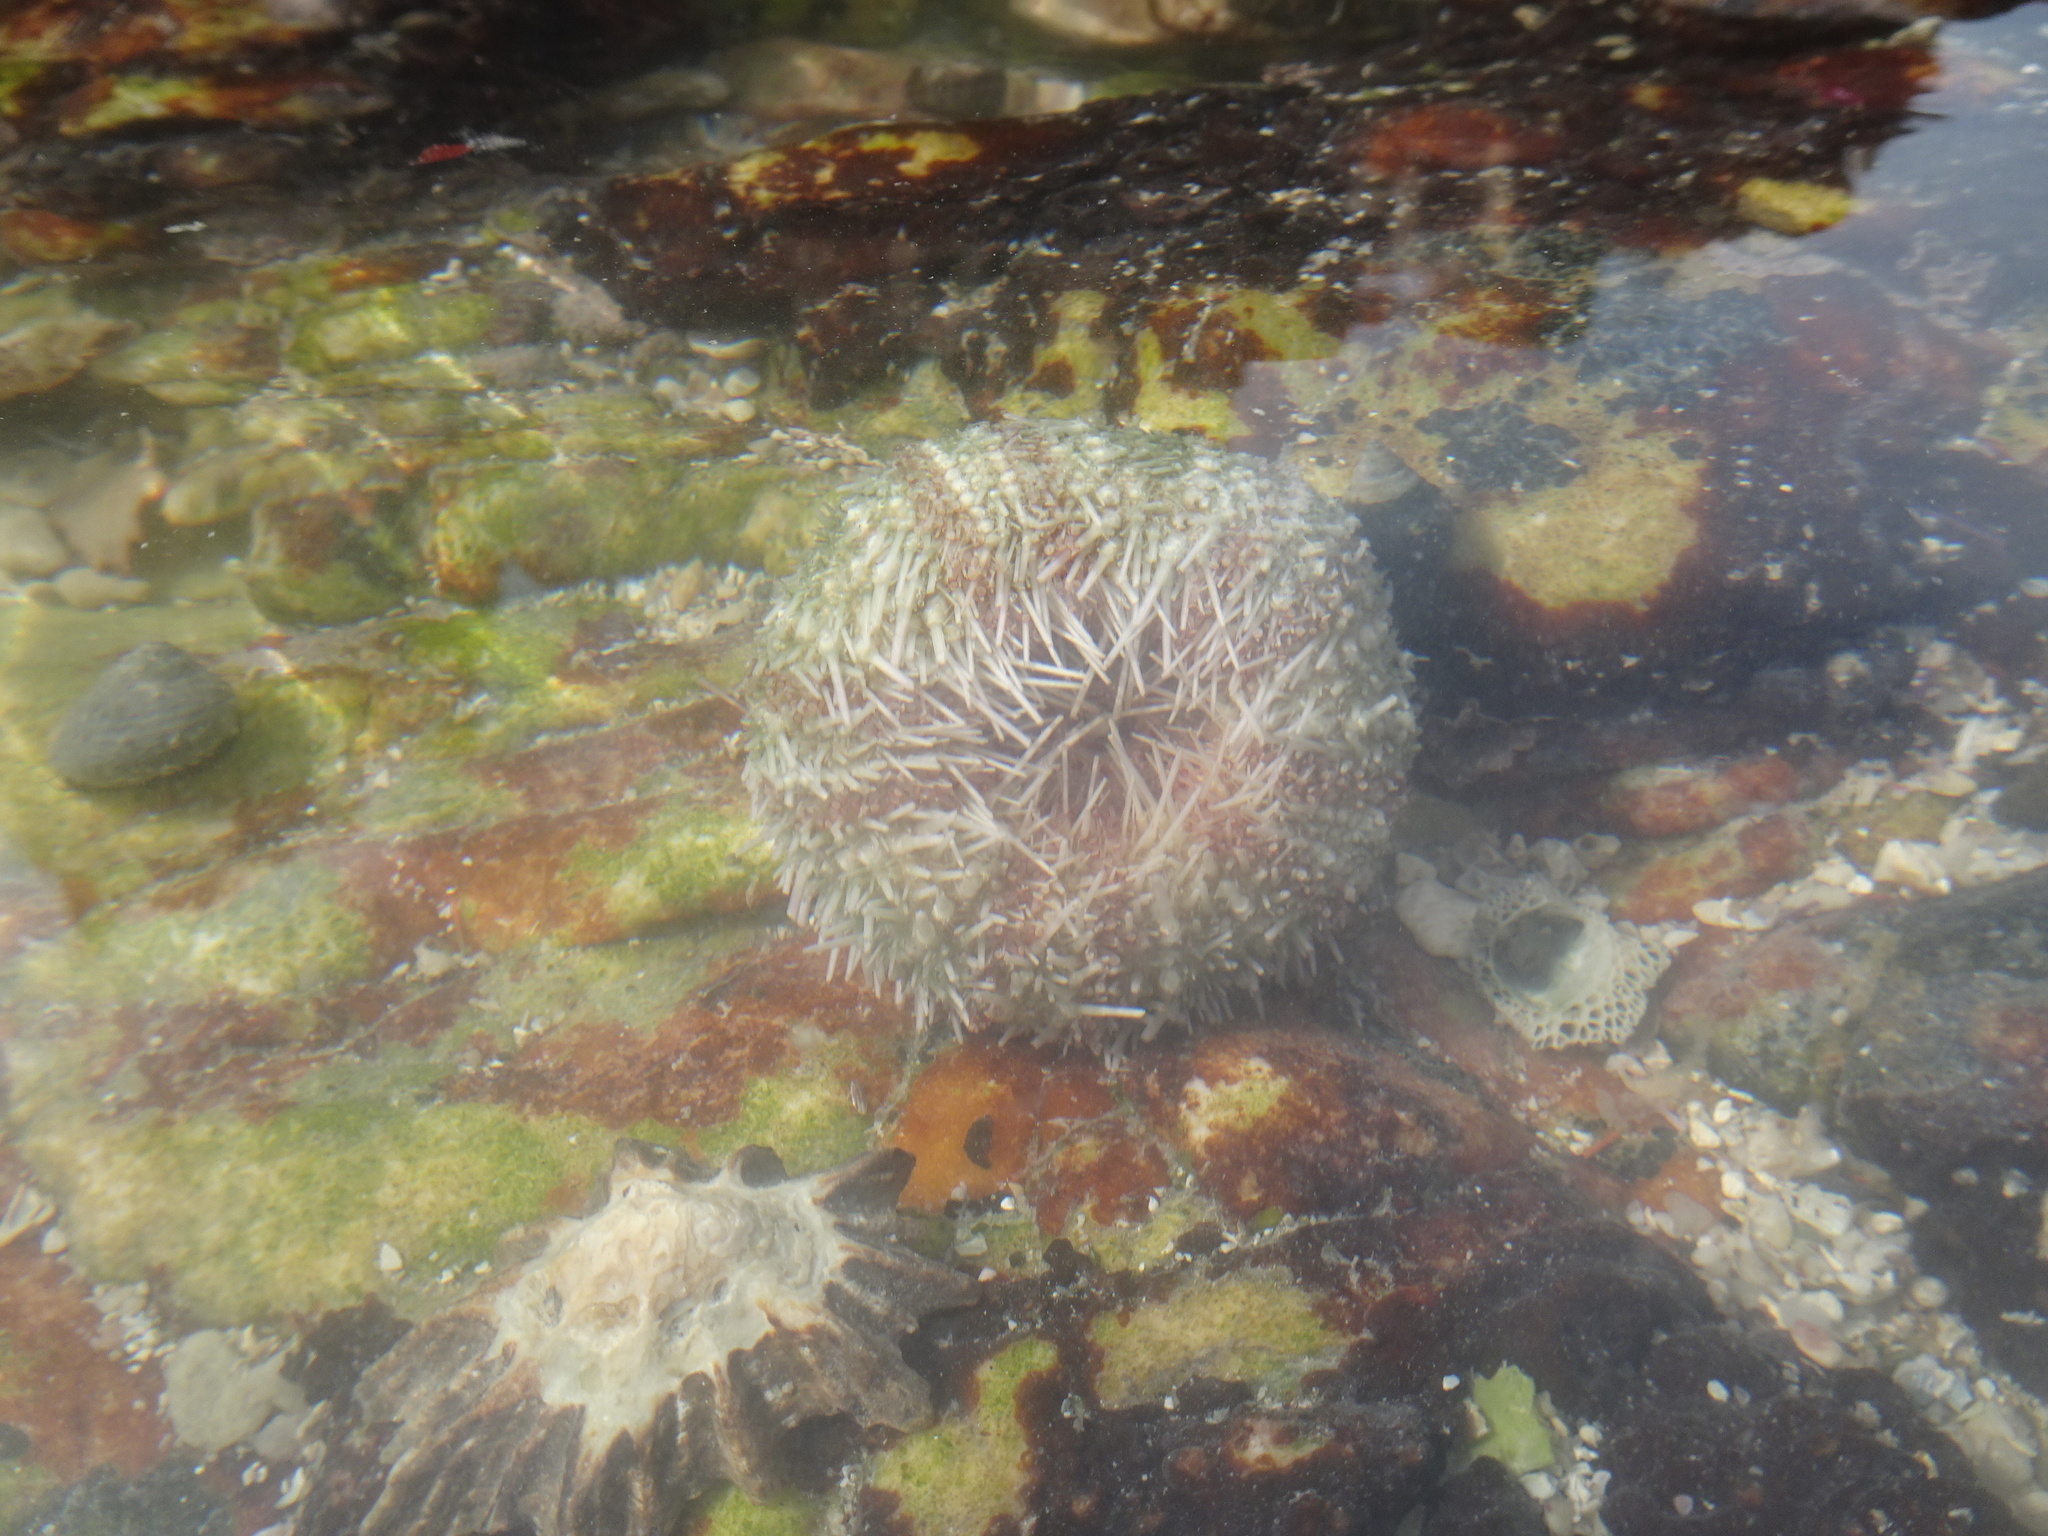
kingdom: Animalia
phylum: Echinodermata
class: Echinoidea
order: Camarodonta
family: Parechinidae
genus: Parechinus
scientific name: Parechinus angulosus
